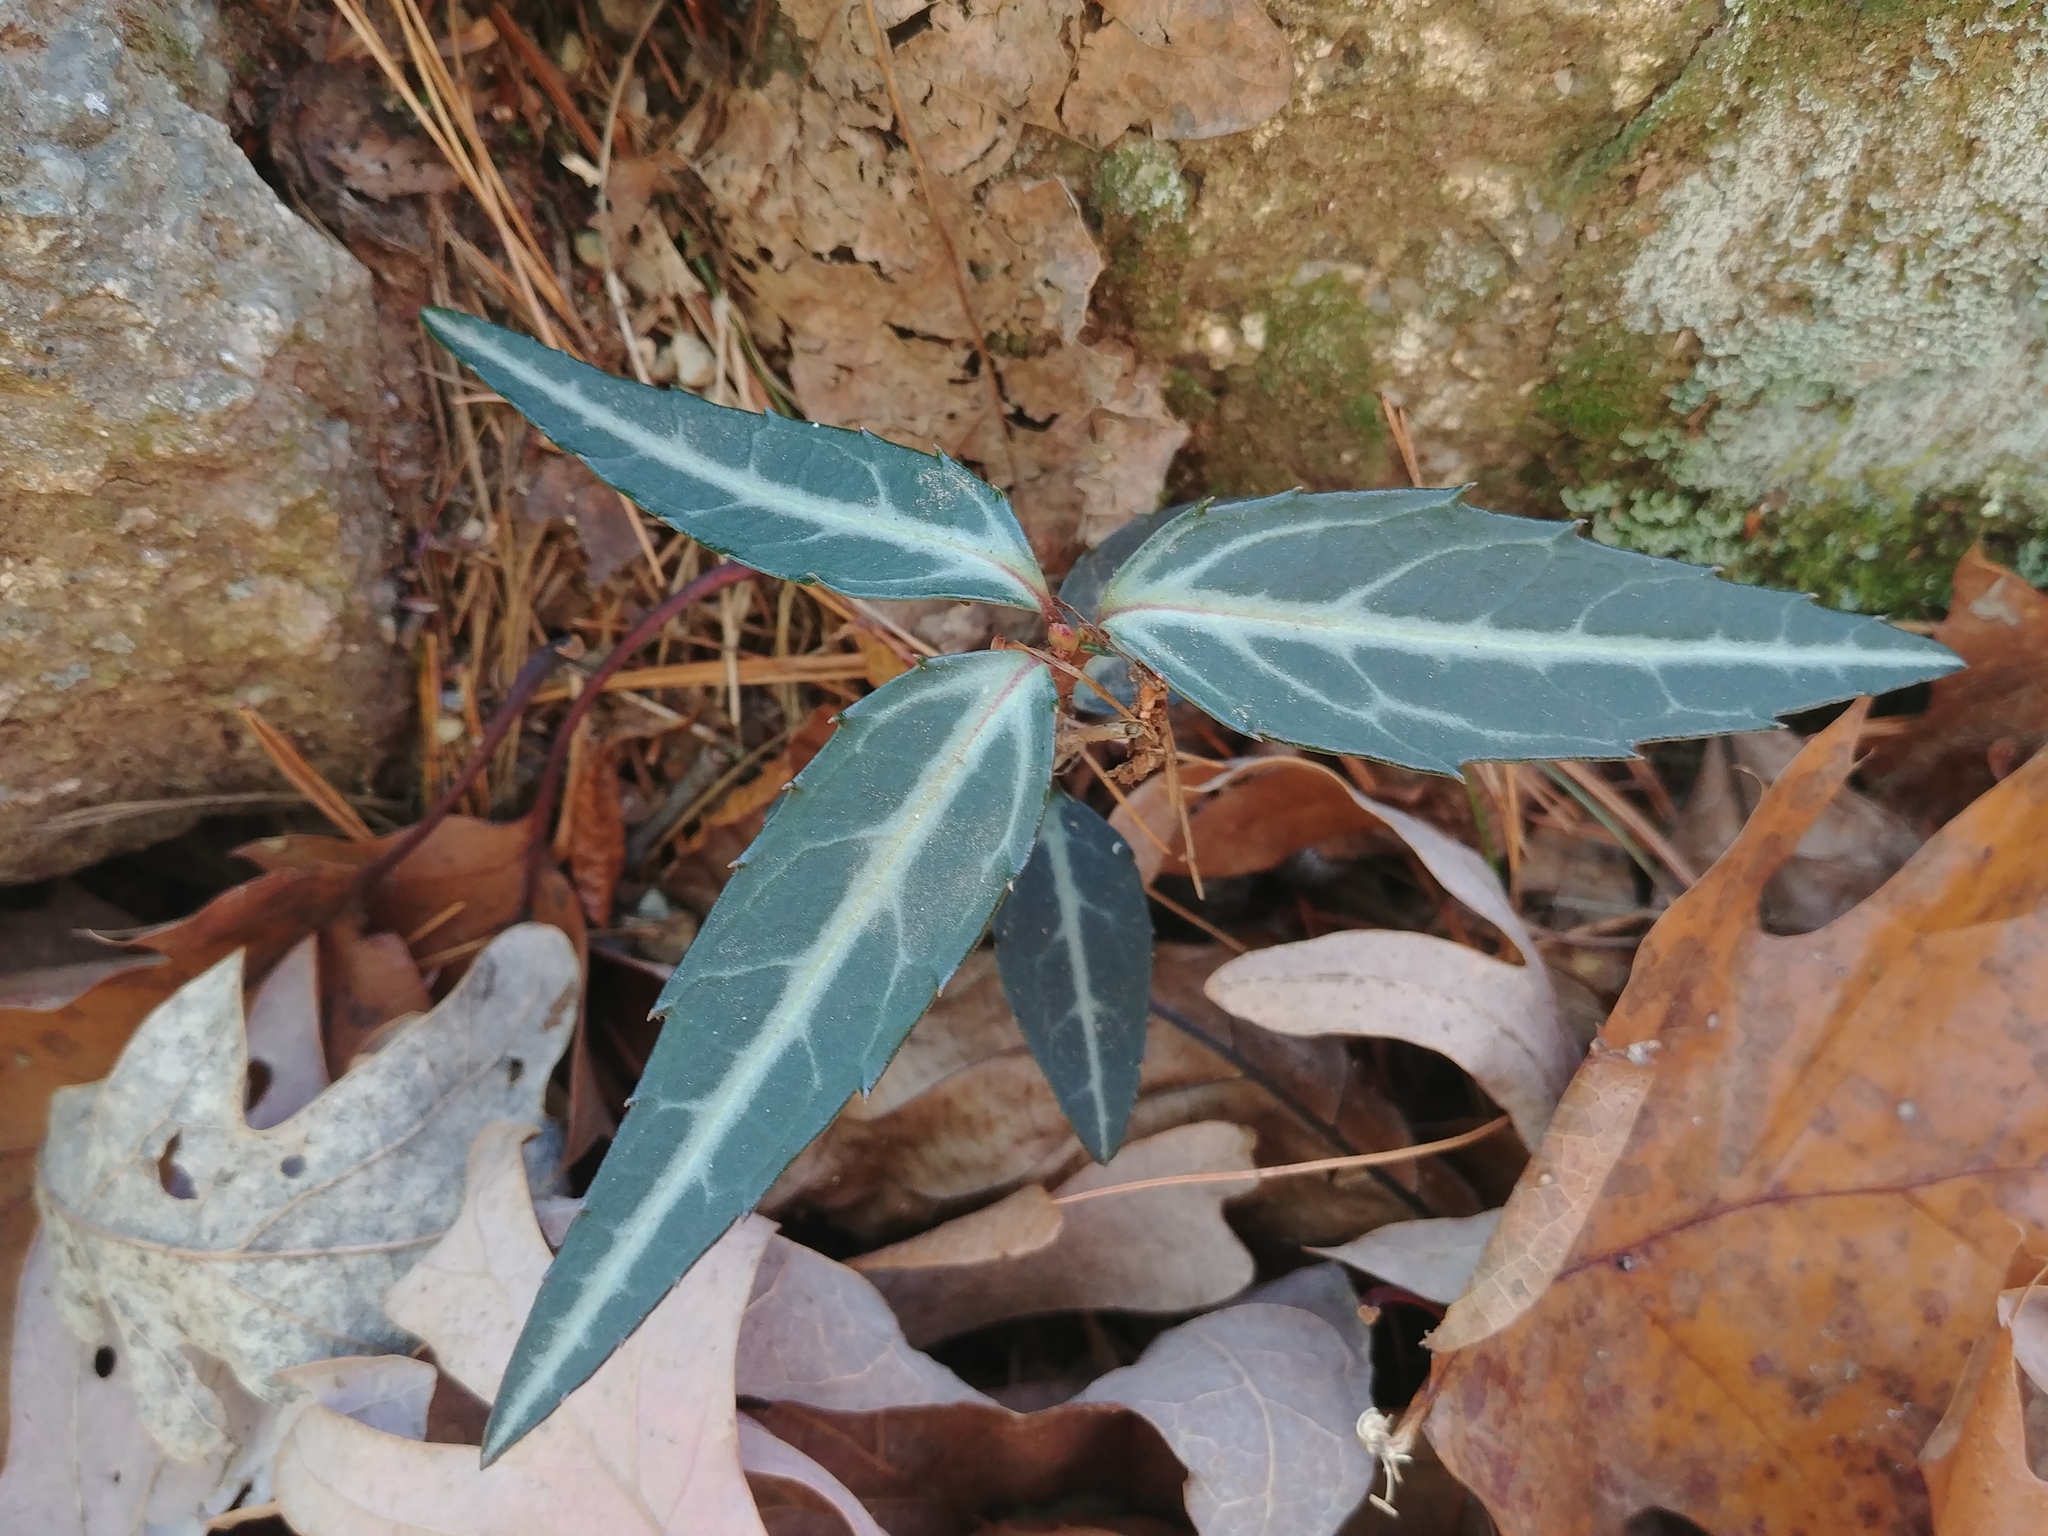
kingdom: Plantae
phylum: Tracheophyta
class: Magnoliopsida
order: Ericales
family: Ericaceae
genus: Chimaphila
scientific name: Chimaphila maculata
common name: Spotted pipsissewa
